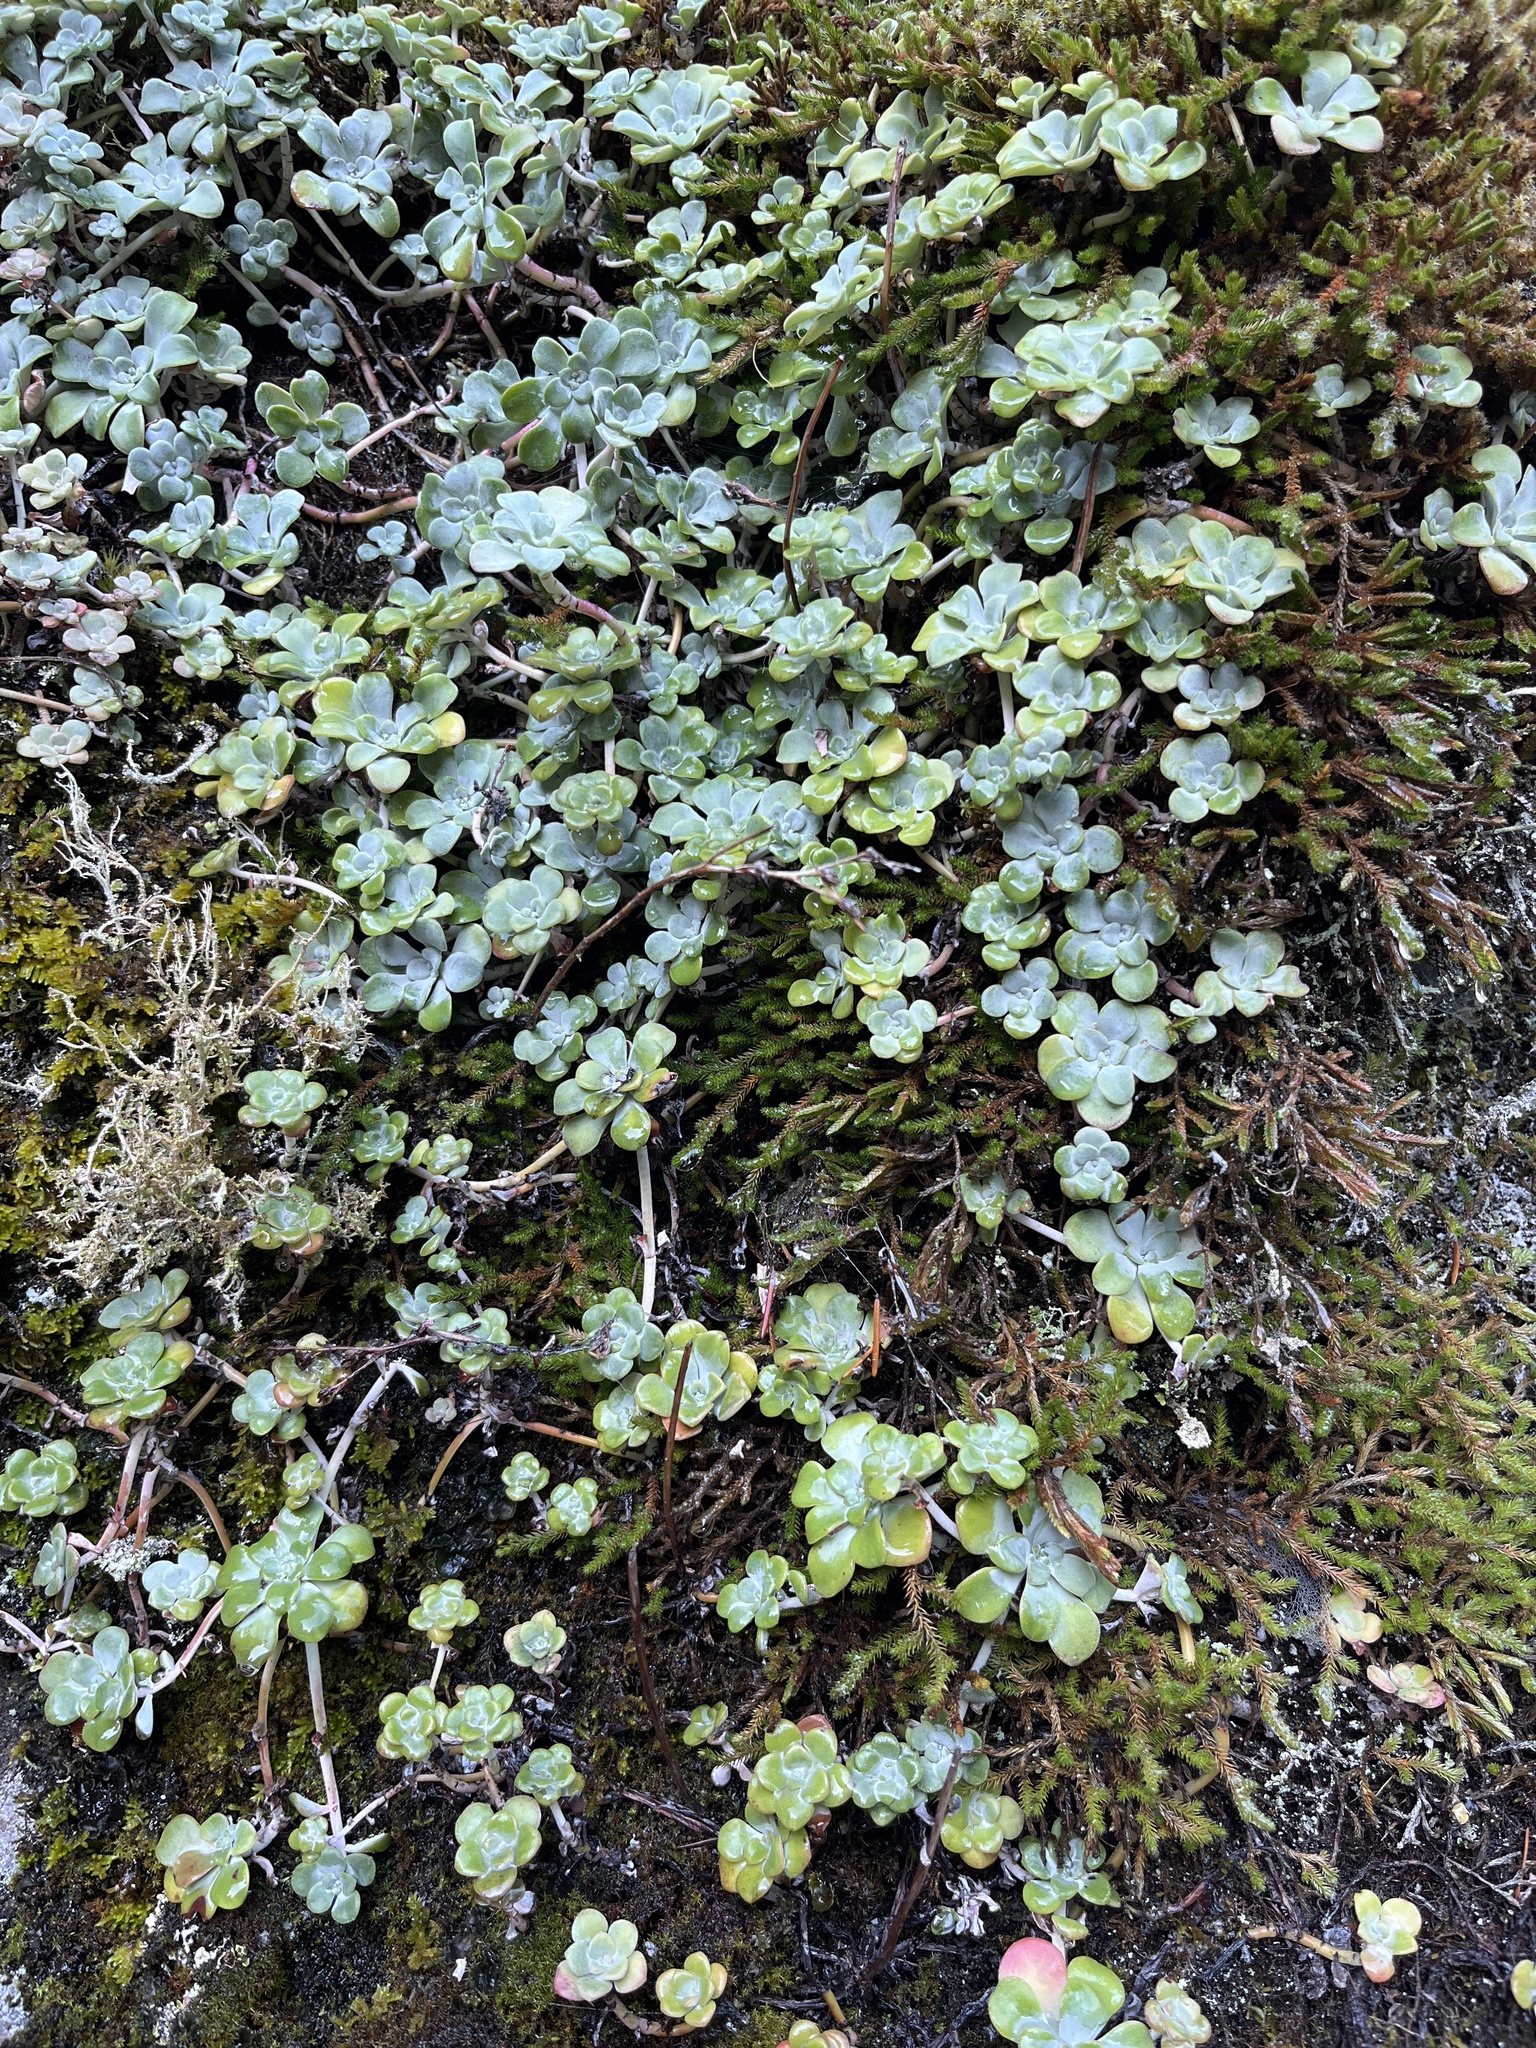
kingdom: Plantae
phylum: Tracheophyta
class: Magnoliopsida
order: Saxifragales
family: Crassulaceae
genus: Sedum
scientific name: Sedum spathulifolium
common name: Colorado stonecrop
